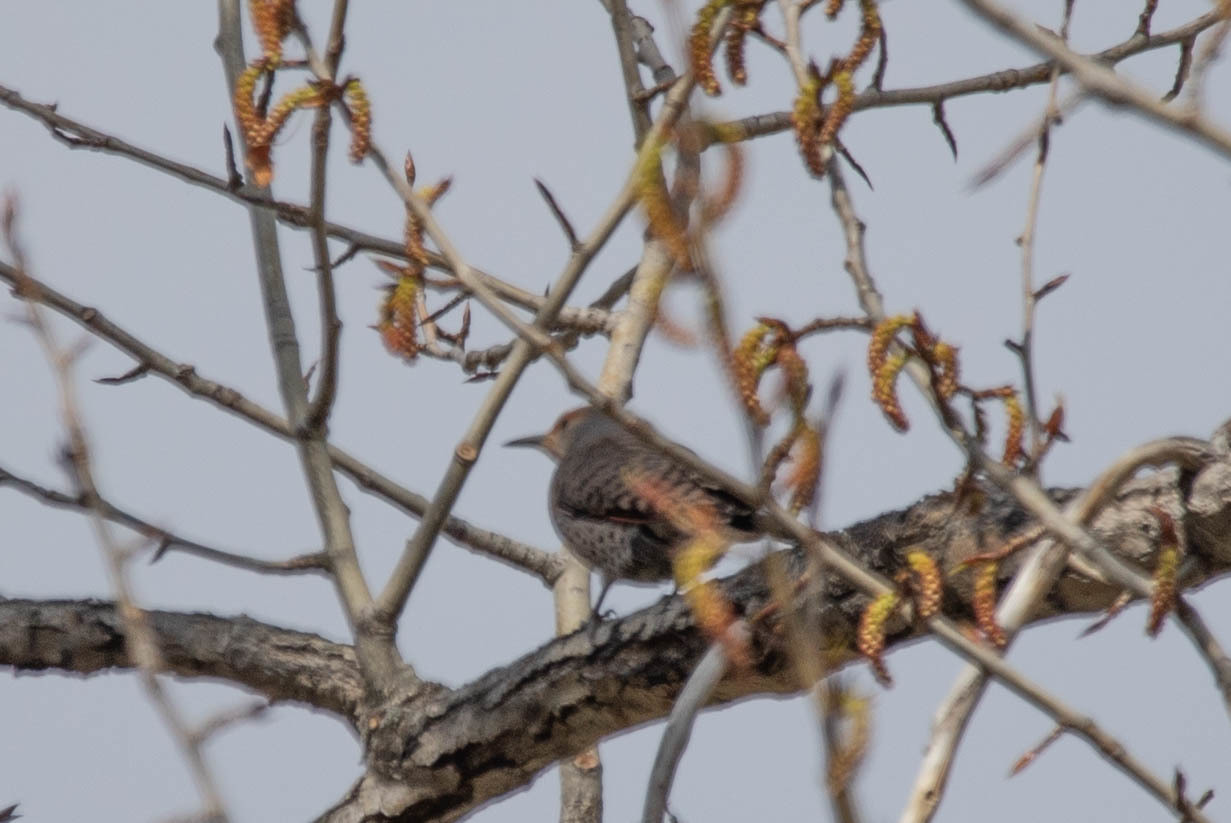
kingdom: Animalia
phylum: Chordata
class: Aves
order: Piciformes
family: Picidae
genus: Colaptes
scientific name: Colaptes auratus
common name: Northern flicker
